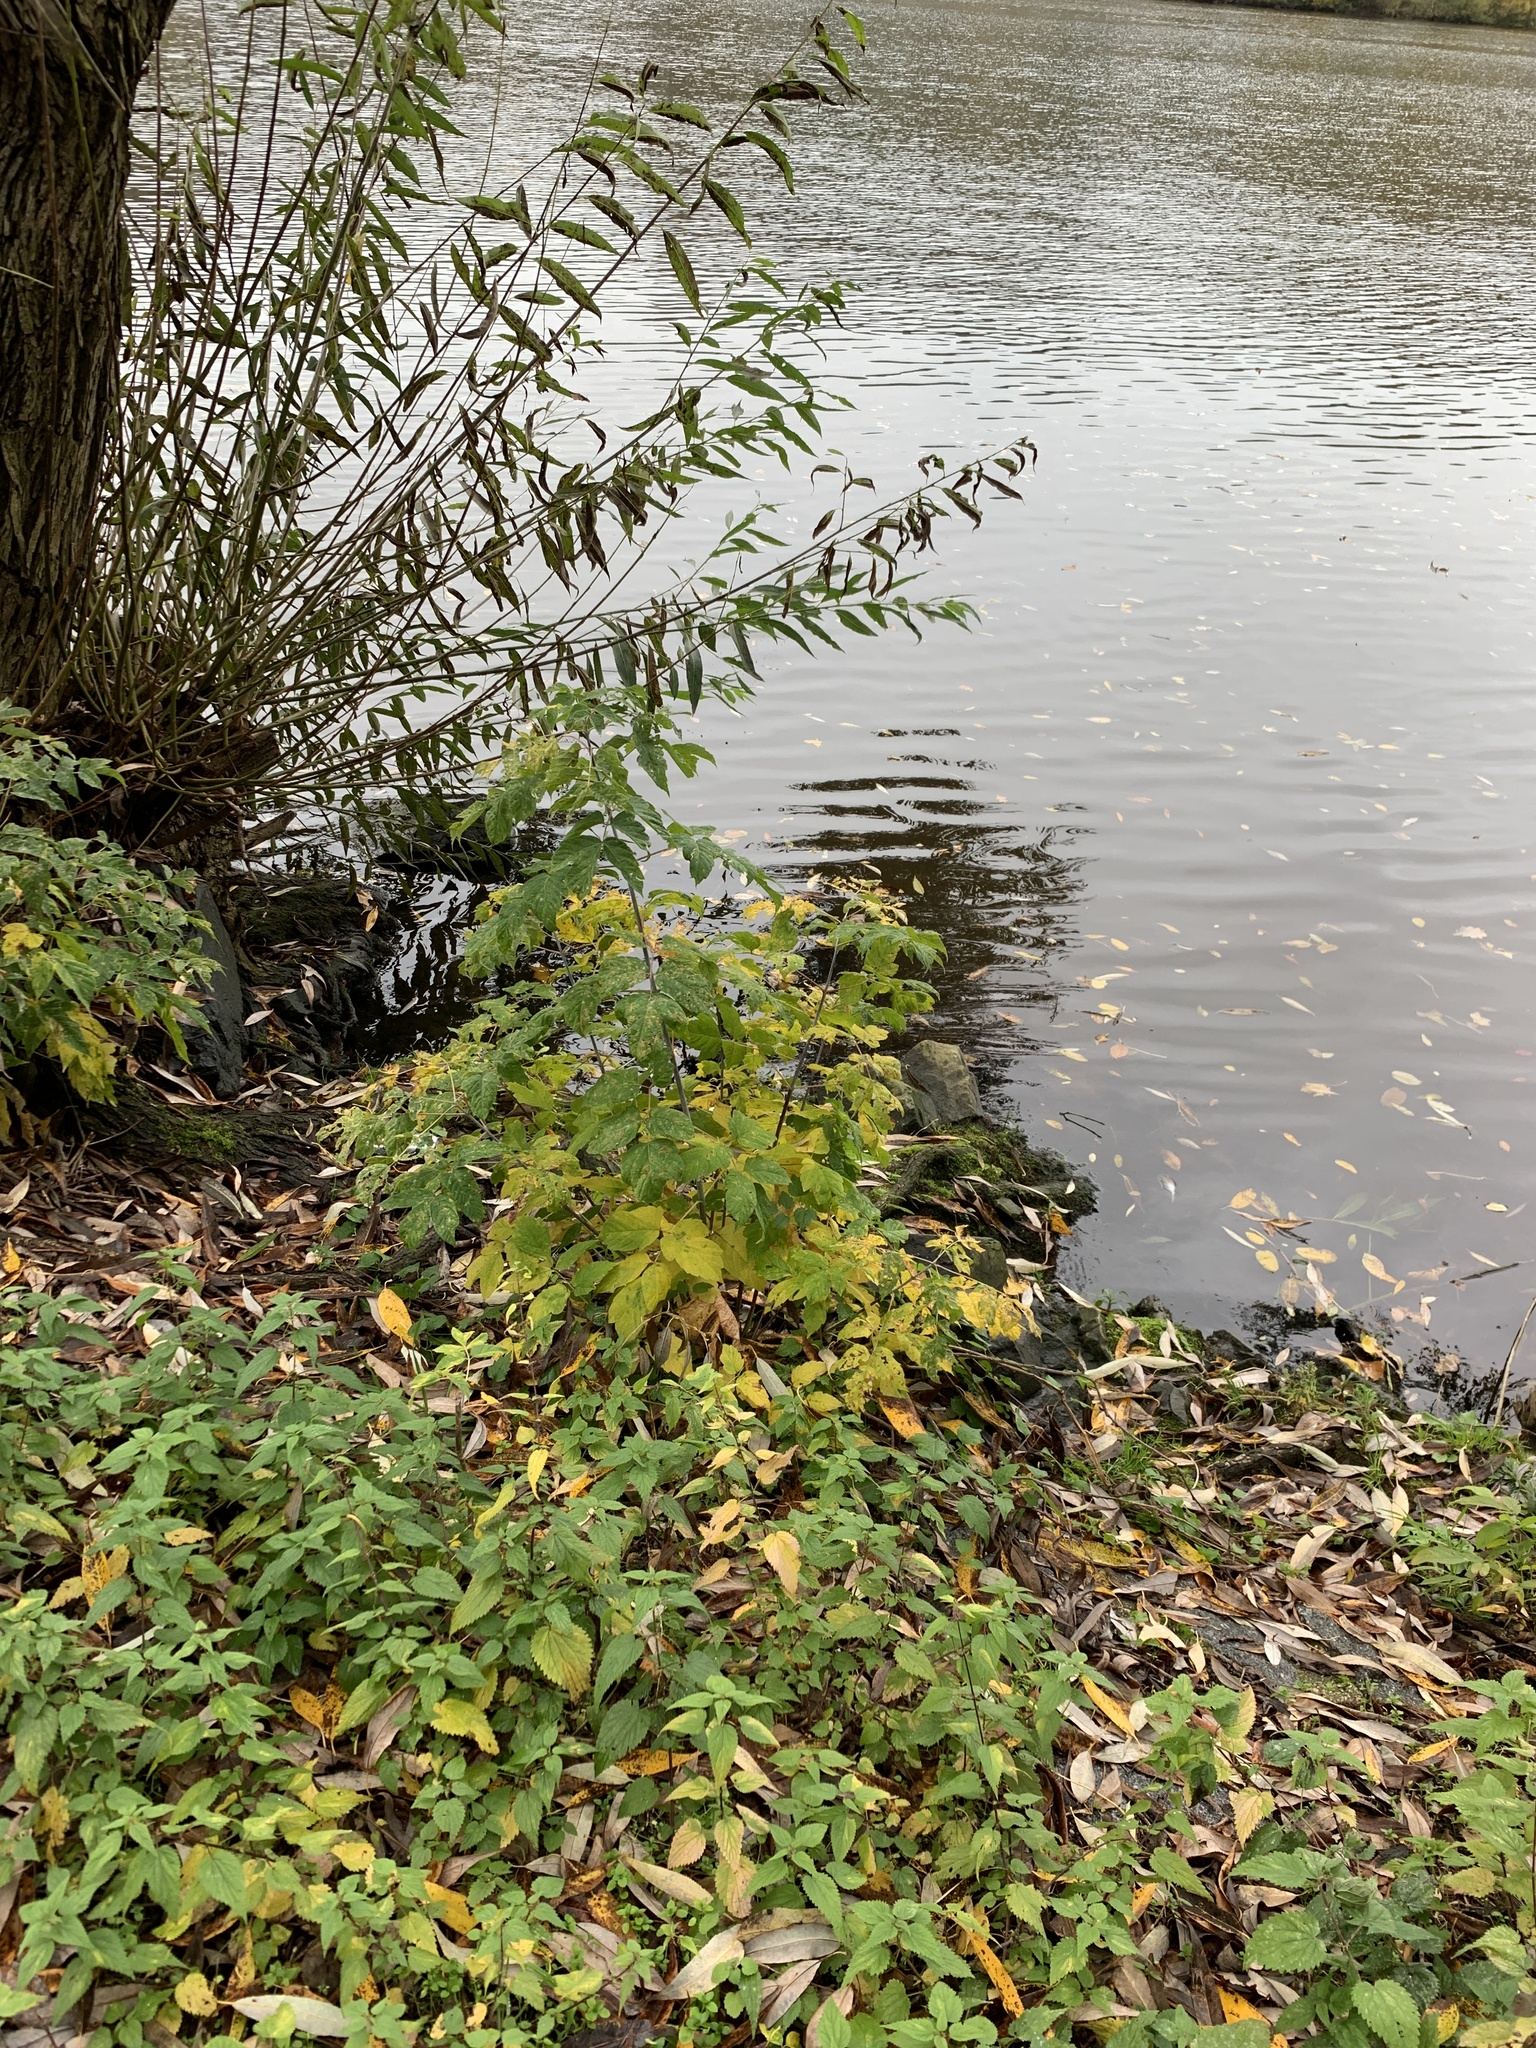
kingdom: Plantae
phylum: Tracheophyta
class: Magnoliopsida
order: Sapindales
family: Sapindaceae
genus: Acer
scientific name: Acer negundo
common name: Ashleaf maple
